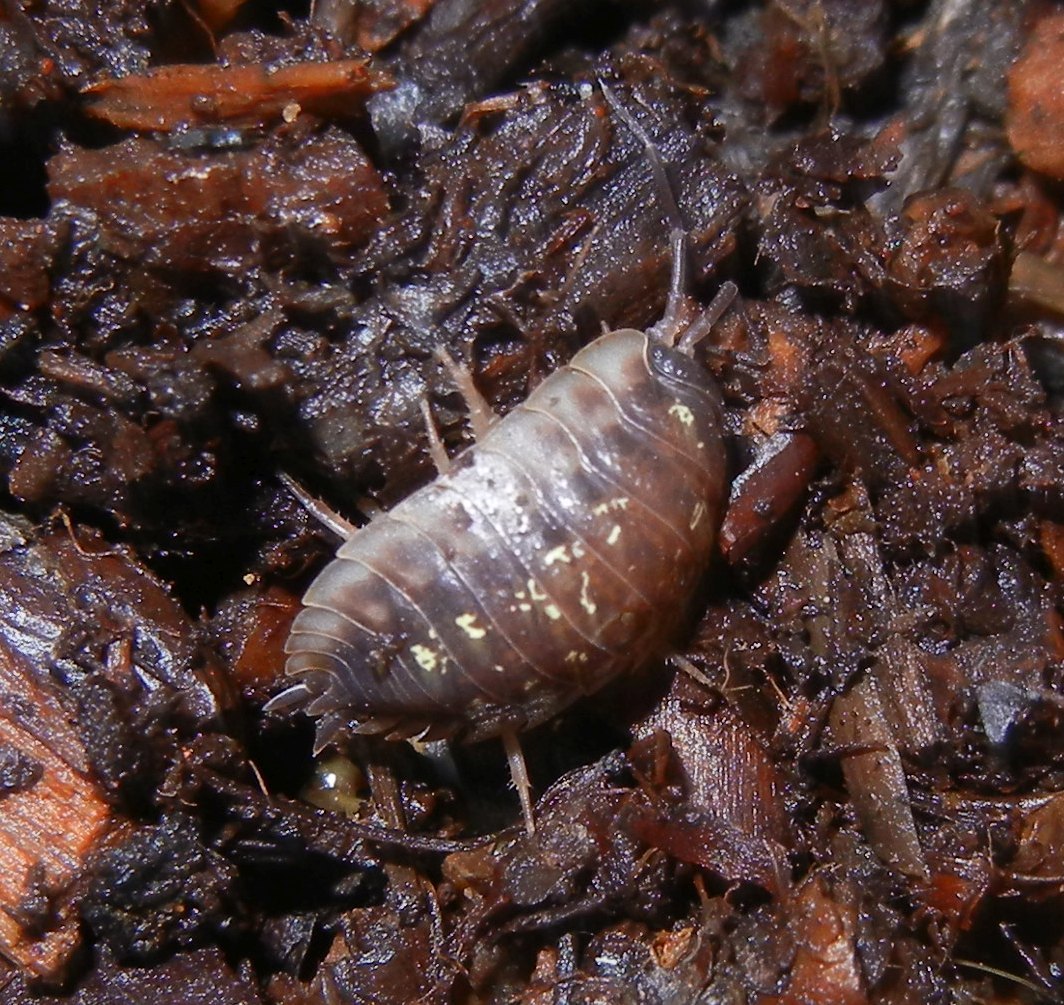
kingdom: Animalia
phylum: Arthropoda
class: Malacostraca
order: Isopoda
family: Oniscidae
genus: Oniscus
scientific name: Oniscus asellus
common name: Common shiny woodlouse
